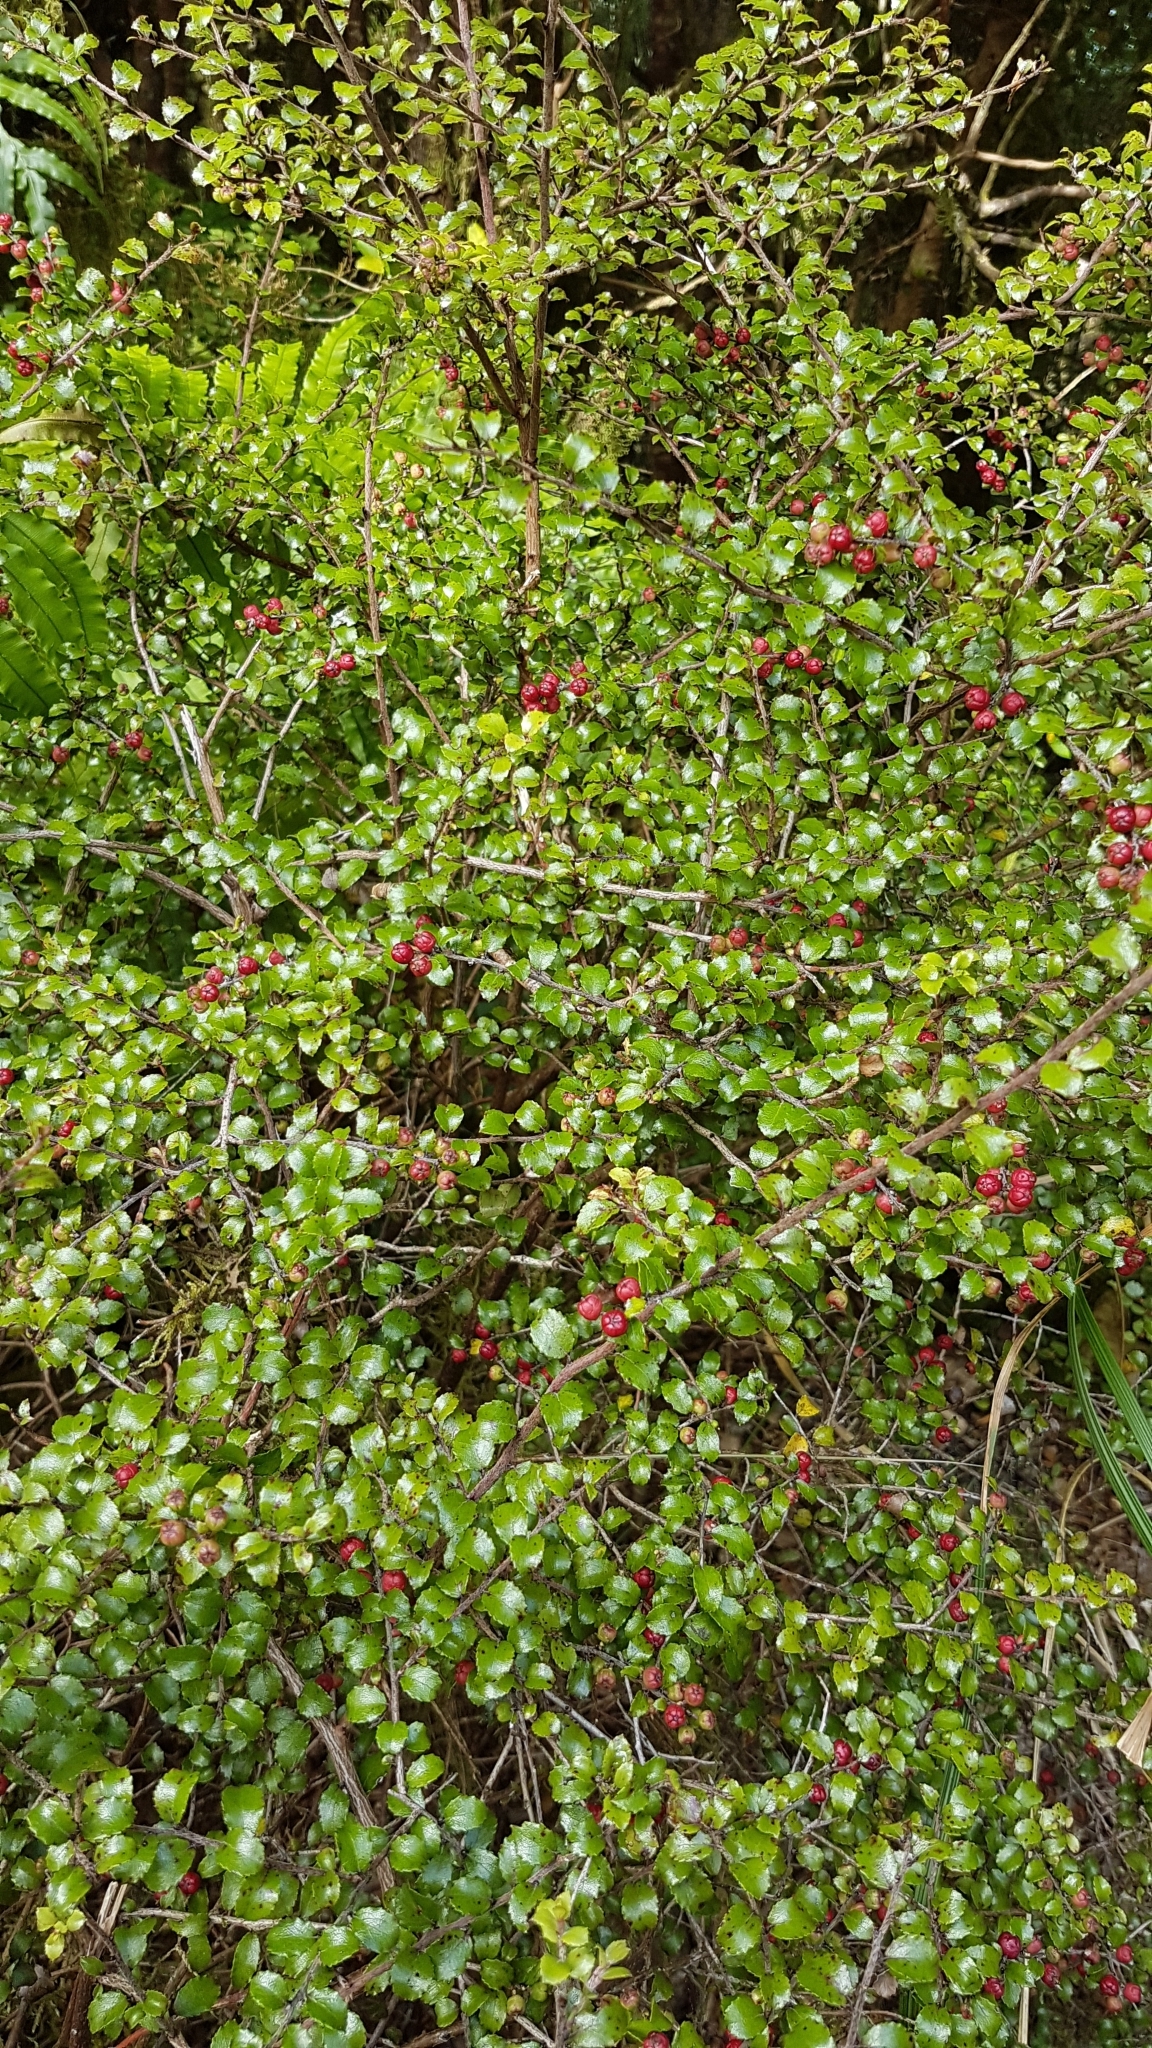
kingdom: Plantae
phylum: Tracheophyta
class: Magnoliopsida
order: Ericales
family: Ericaceae
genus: Gaultheria
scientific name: Gaultheria antipoda
